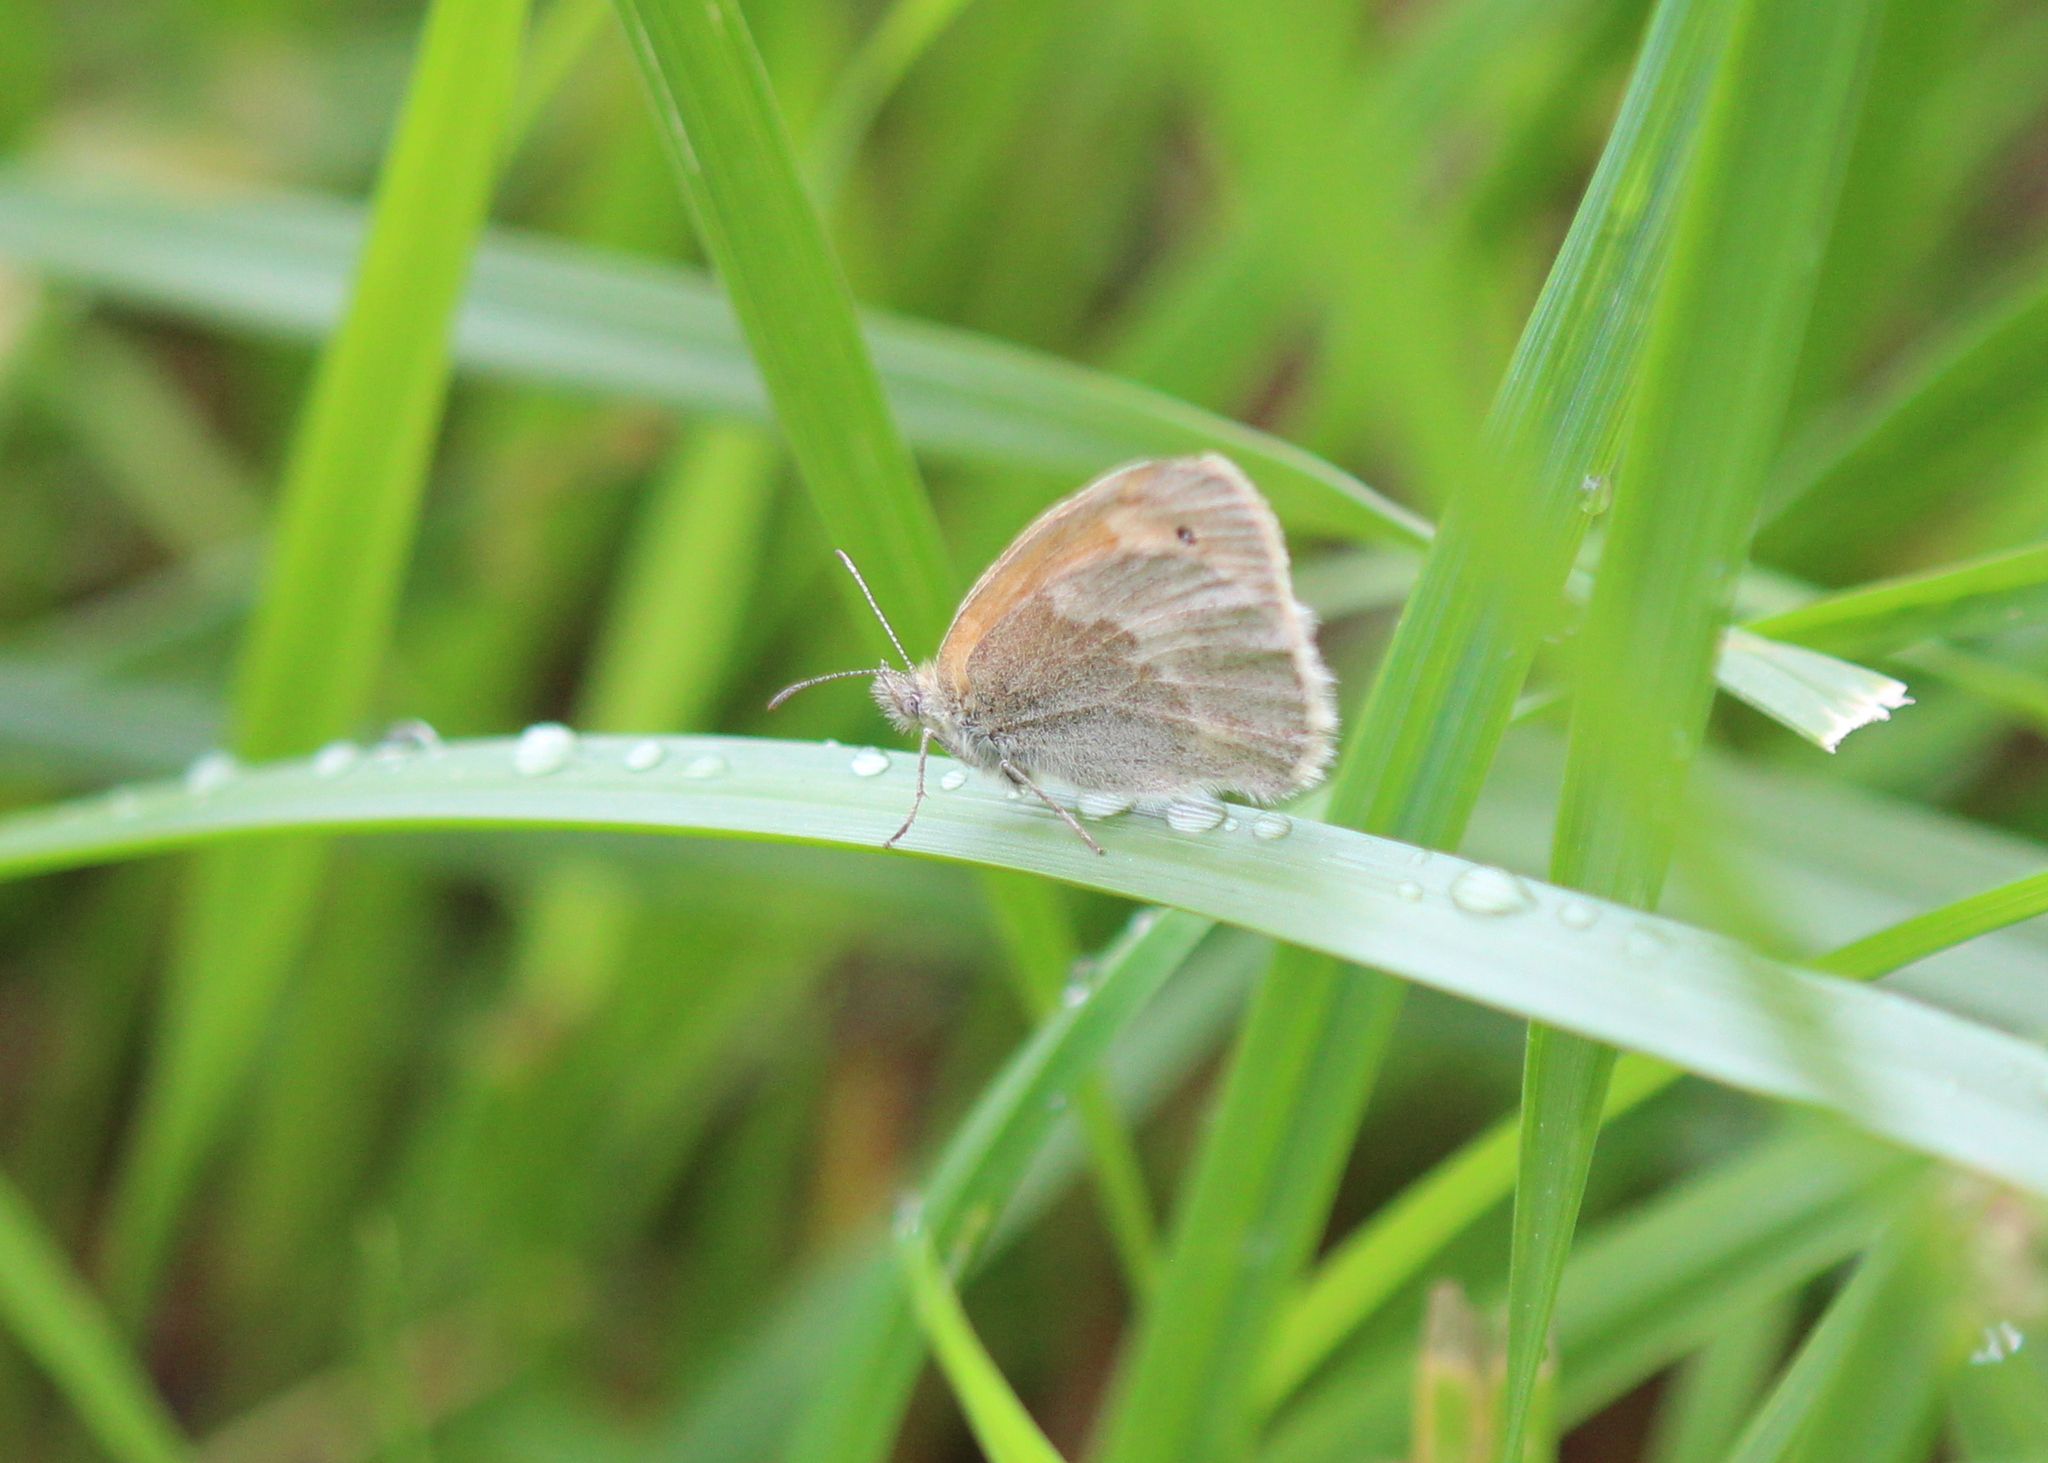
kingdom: Animalia
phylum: Arthropoda
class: Insecta
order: Lepidoptera
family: Nymphalidae
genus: Coenonympha
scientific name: Coenonympha california
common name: Common ringlet
